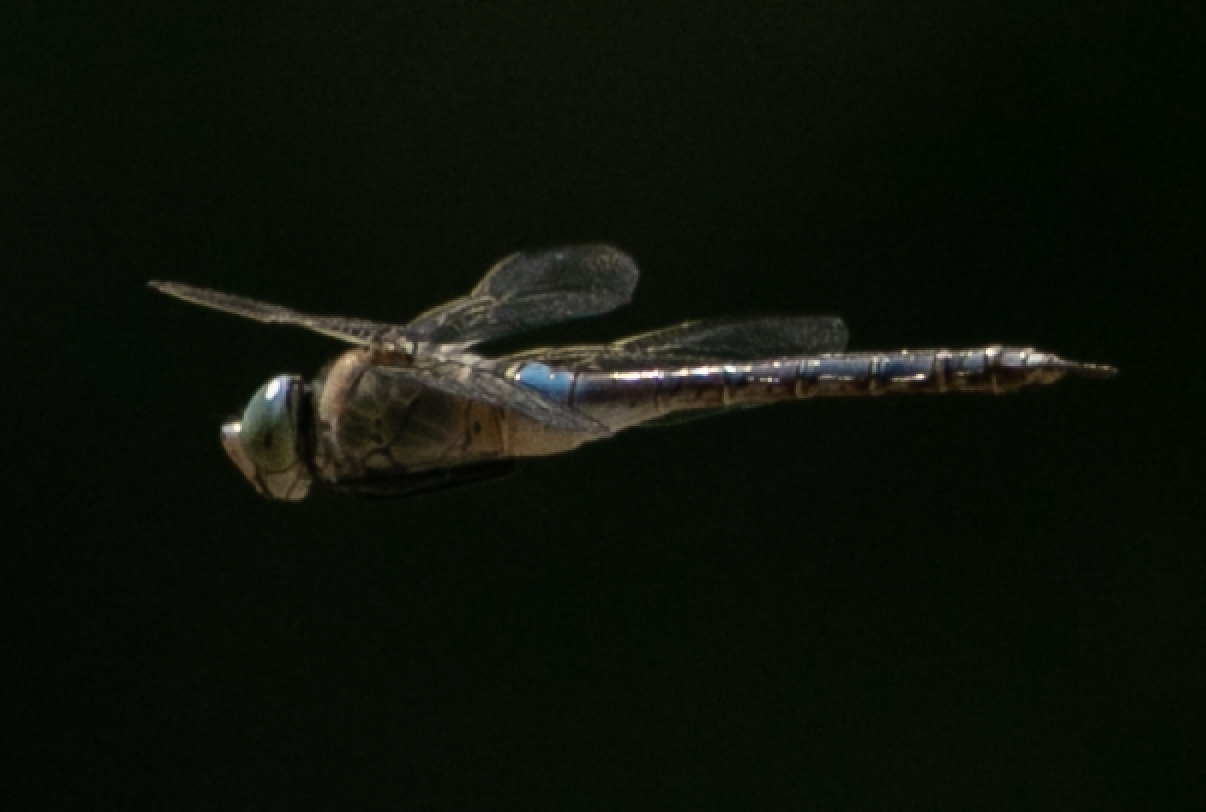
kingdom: Animalia
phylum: Arthropoda
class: Insecta
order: Odonata
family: Aeshnidae
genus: Anax
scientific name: Anax parthenope
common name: Lesser emperor
